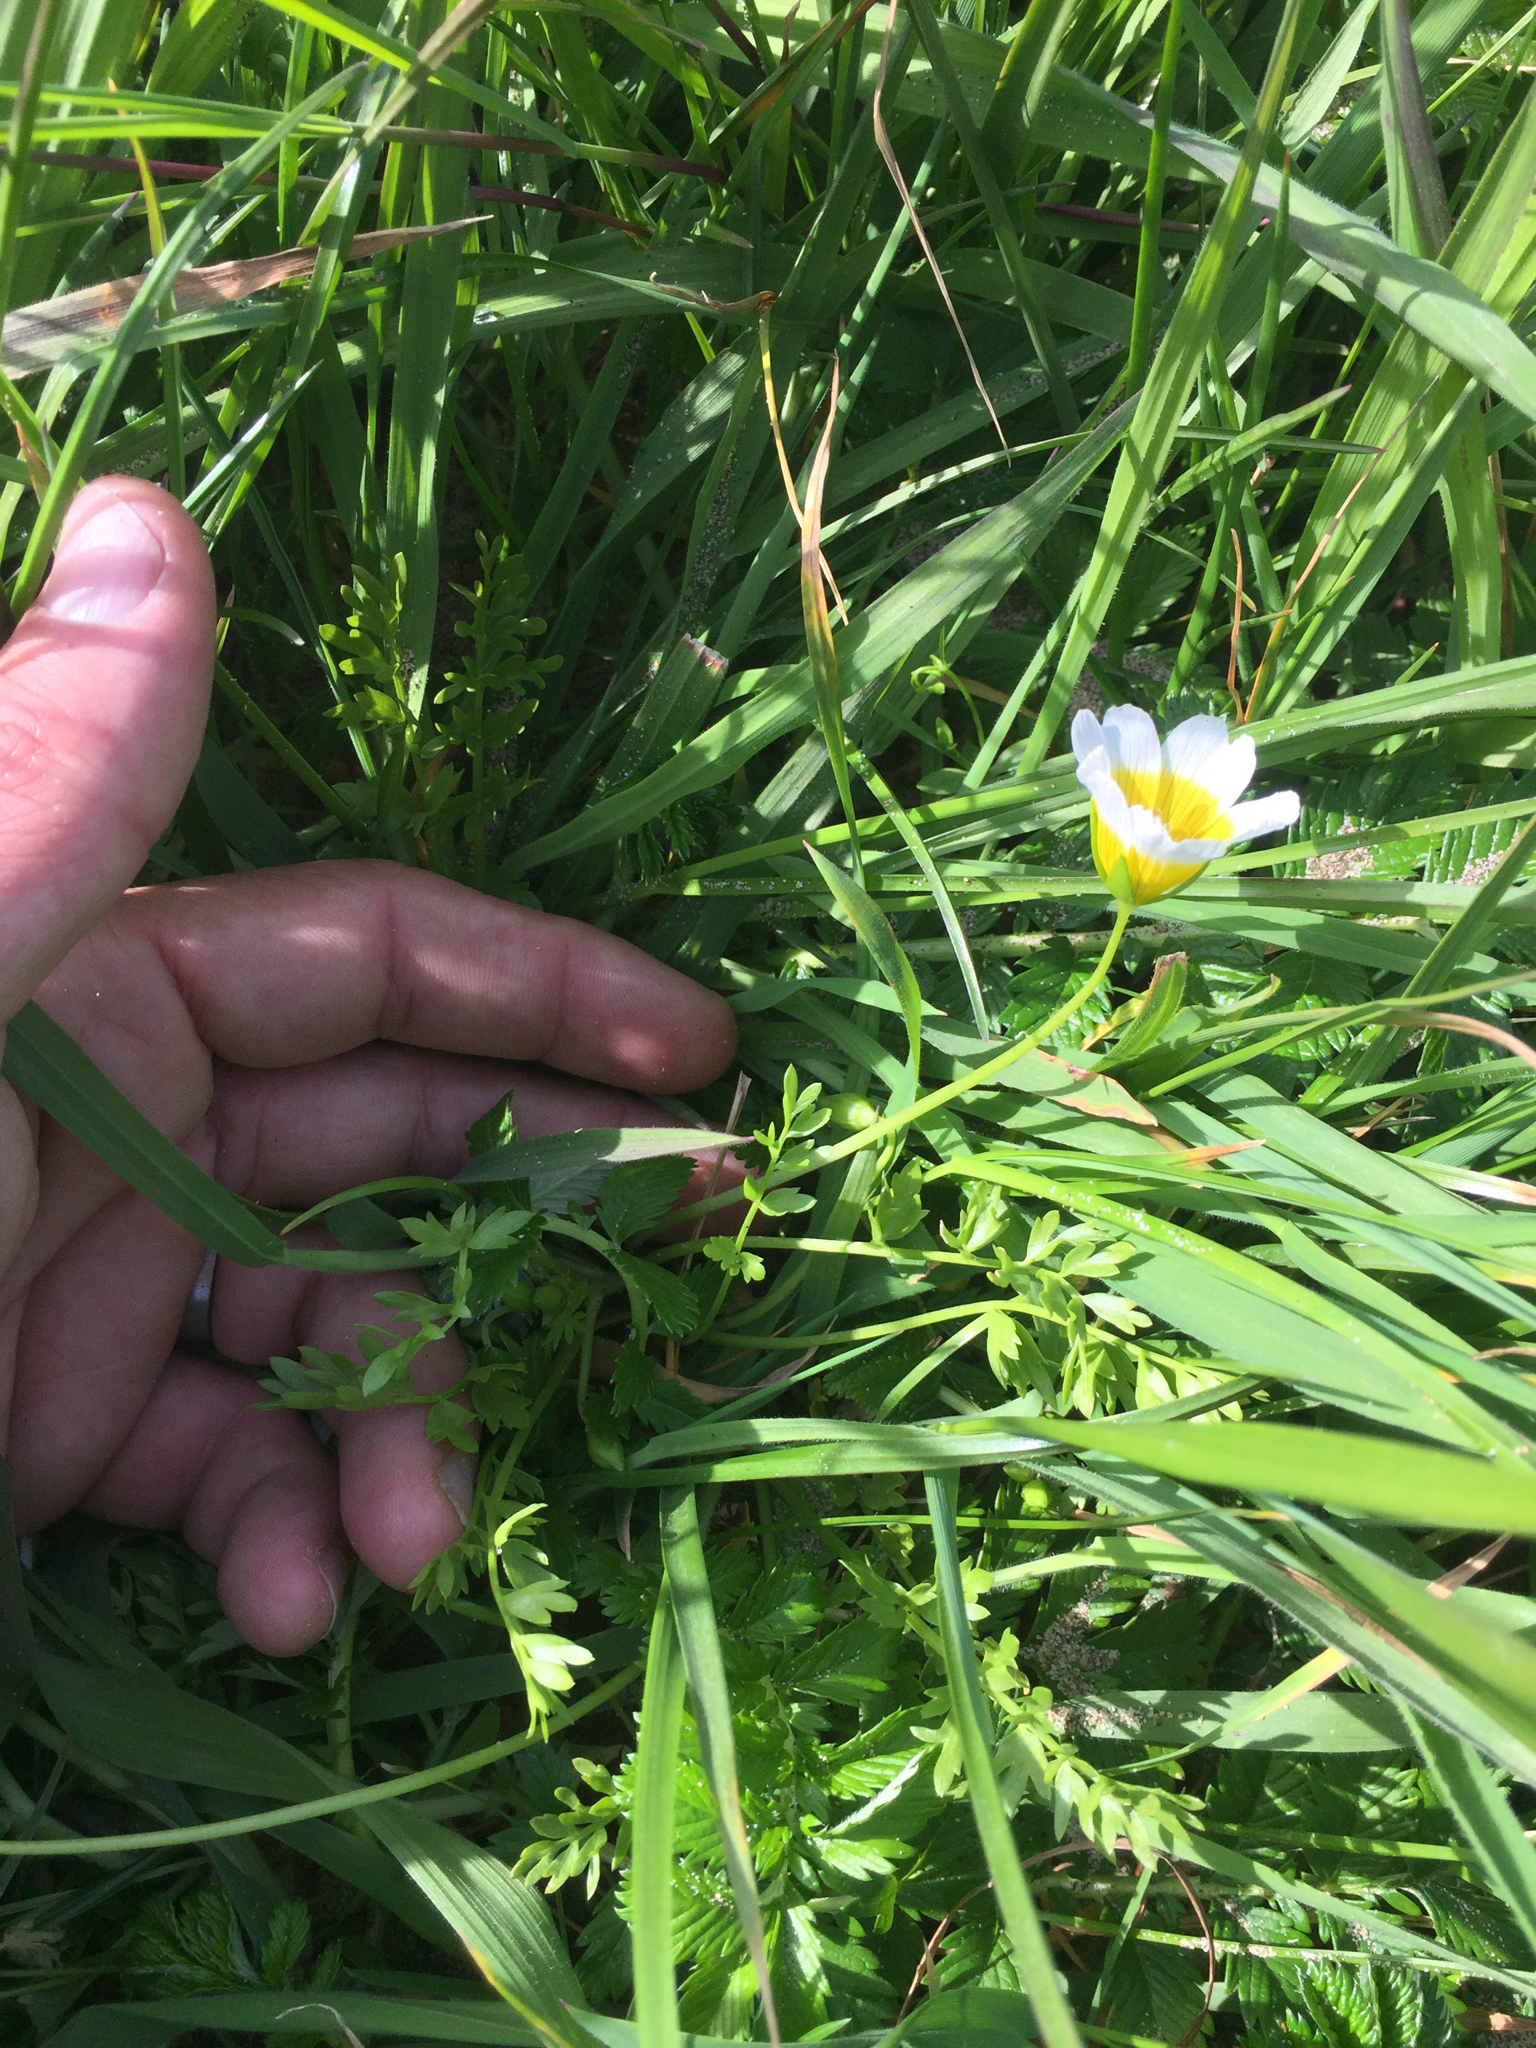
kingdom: Plantae
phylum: Tracheophyta
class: Magnoliopsida
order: Brassicales
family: Limnanthaceae
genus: Limnanthes
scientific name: Limnanthes douglasii
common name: Meadow-foam
